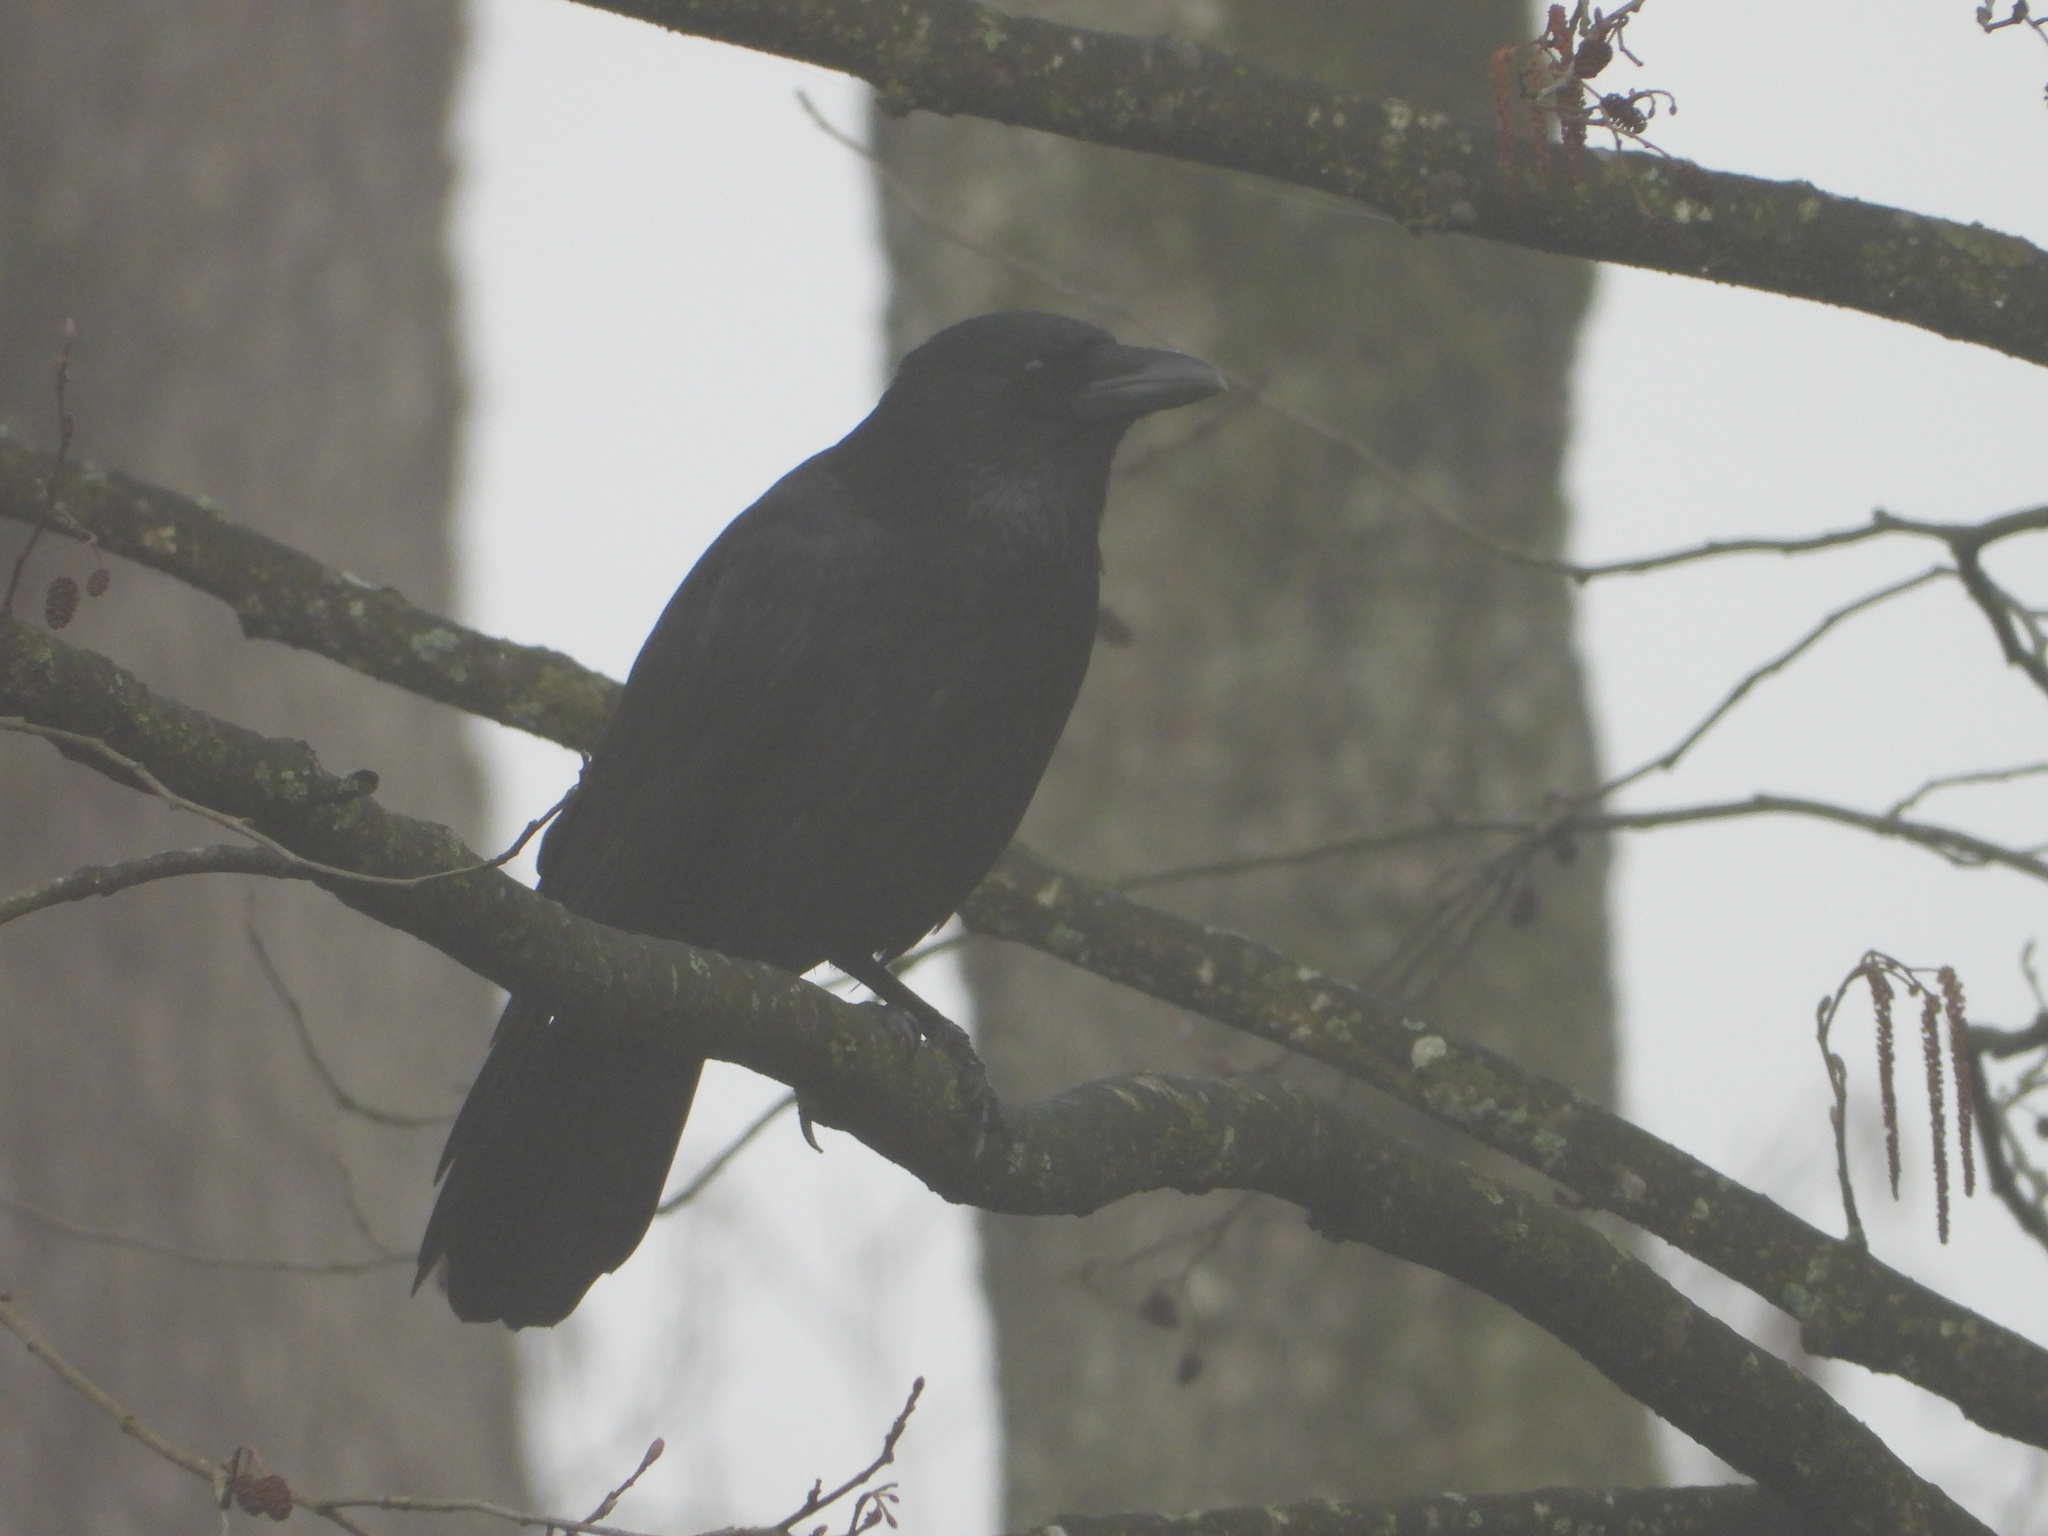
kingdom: Animalia
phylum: Chordata
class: Aves
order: Passeriformes
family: Corvidae
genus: Corvus
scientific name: Corvus corone
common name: Carrion crow
